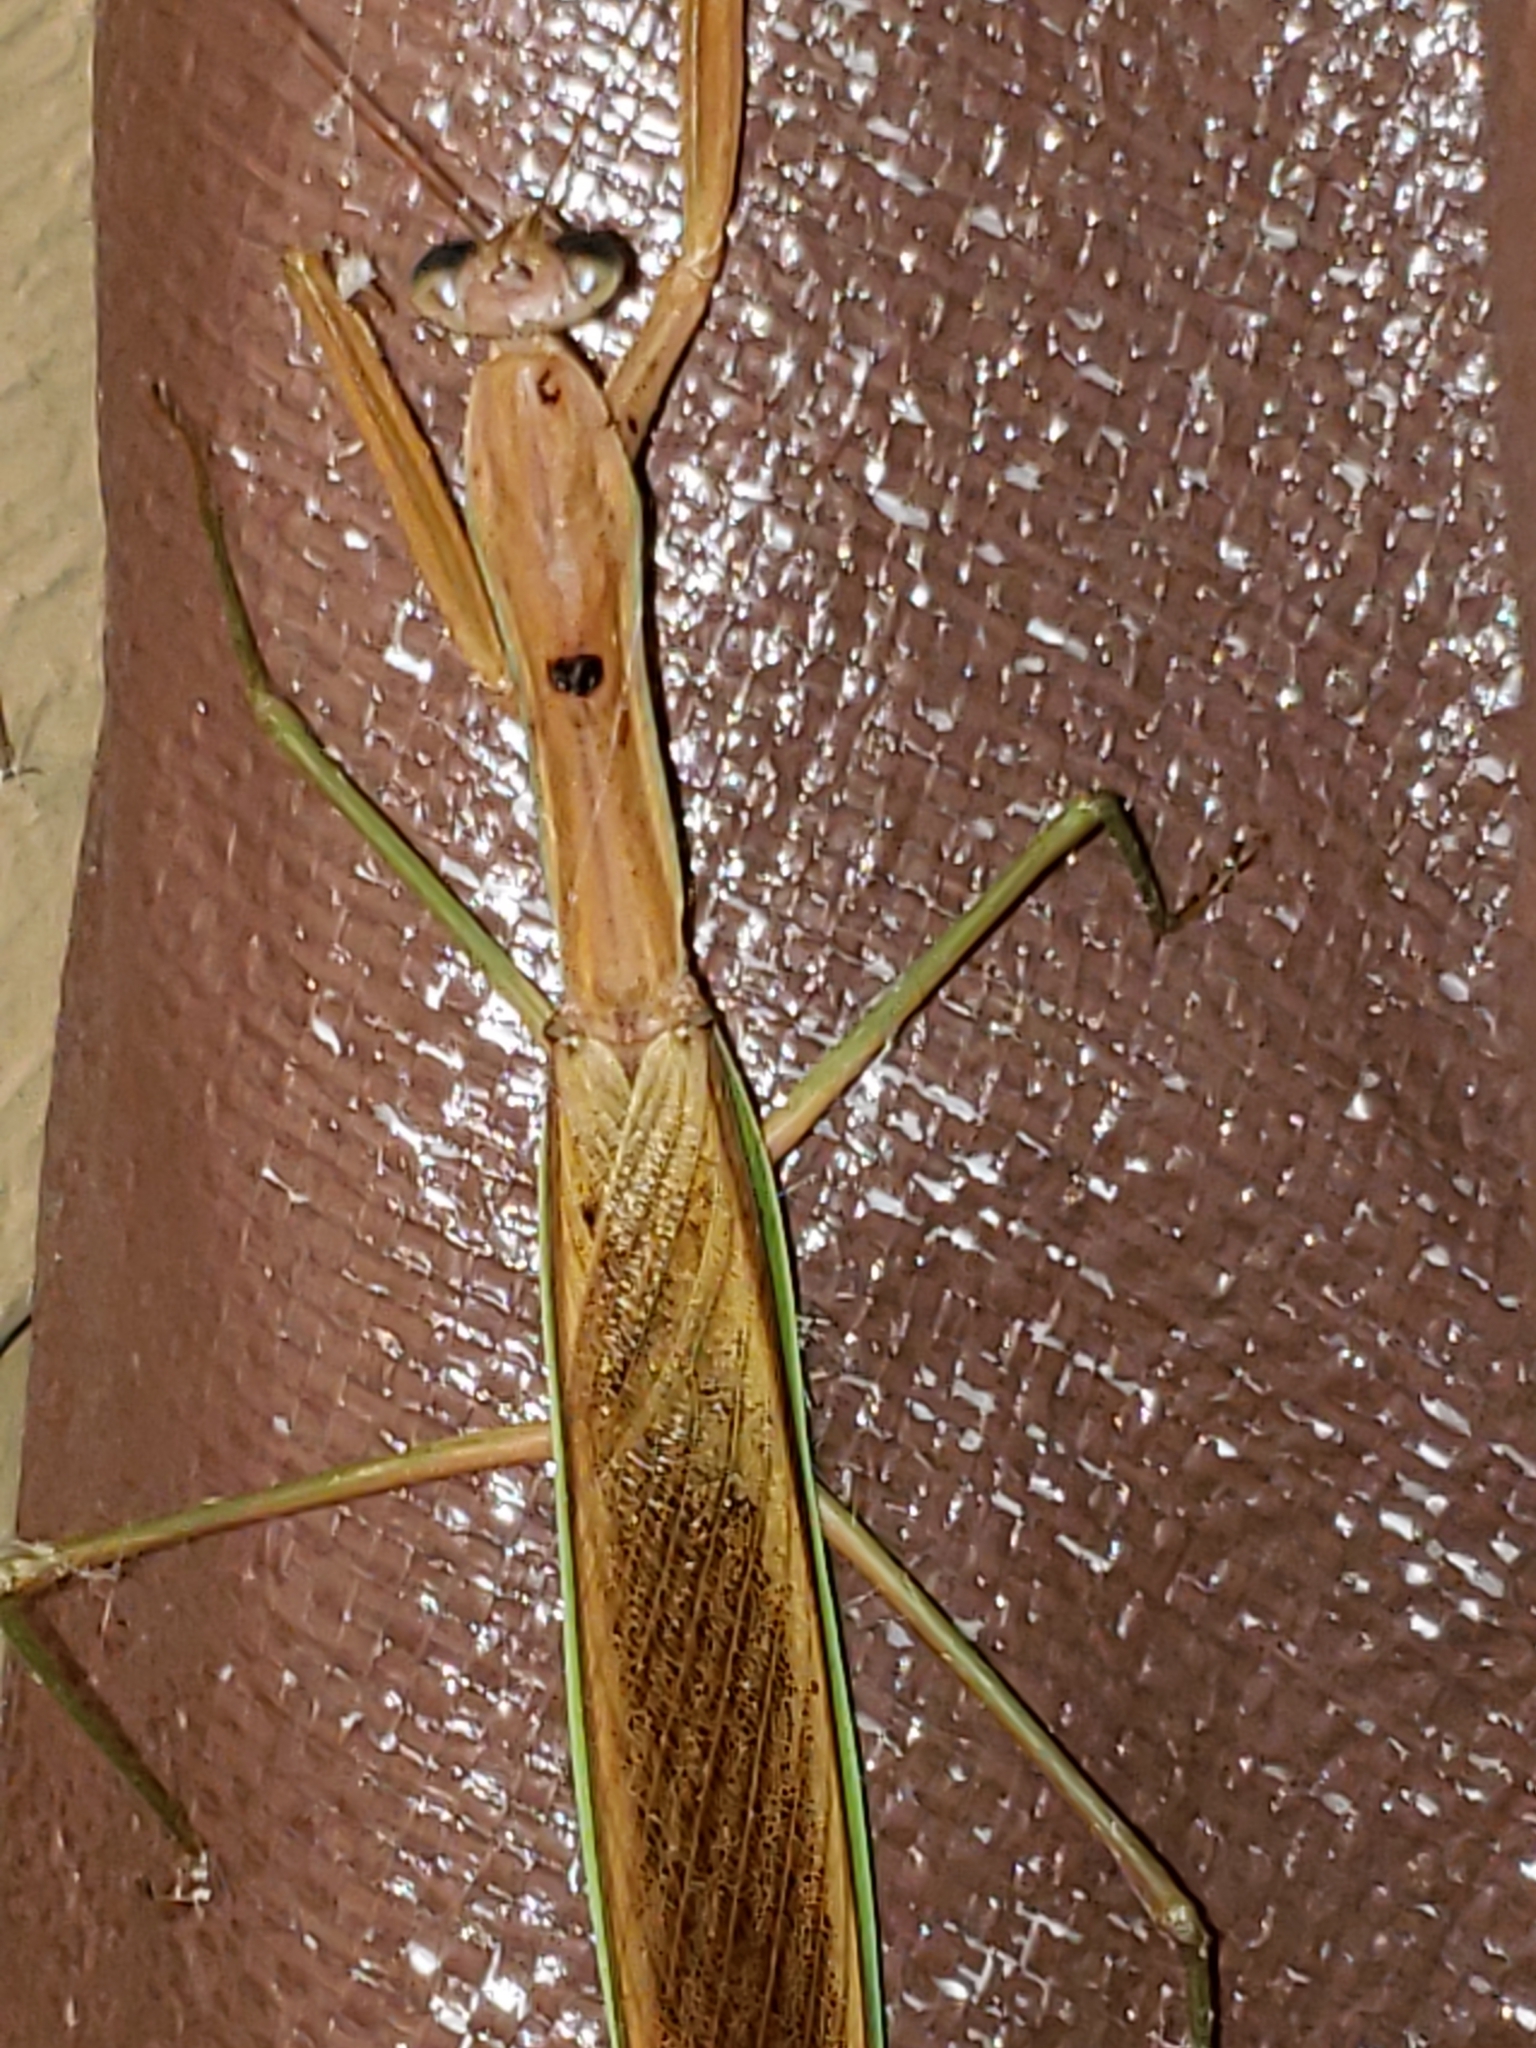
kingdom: Animalia
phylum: Arthropoda
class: Insecta
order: Mantodea
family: Mantidae
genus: Tenodera
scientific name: Tenodera sinensis
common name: Chinese mantis
